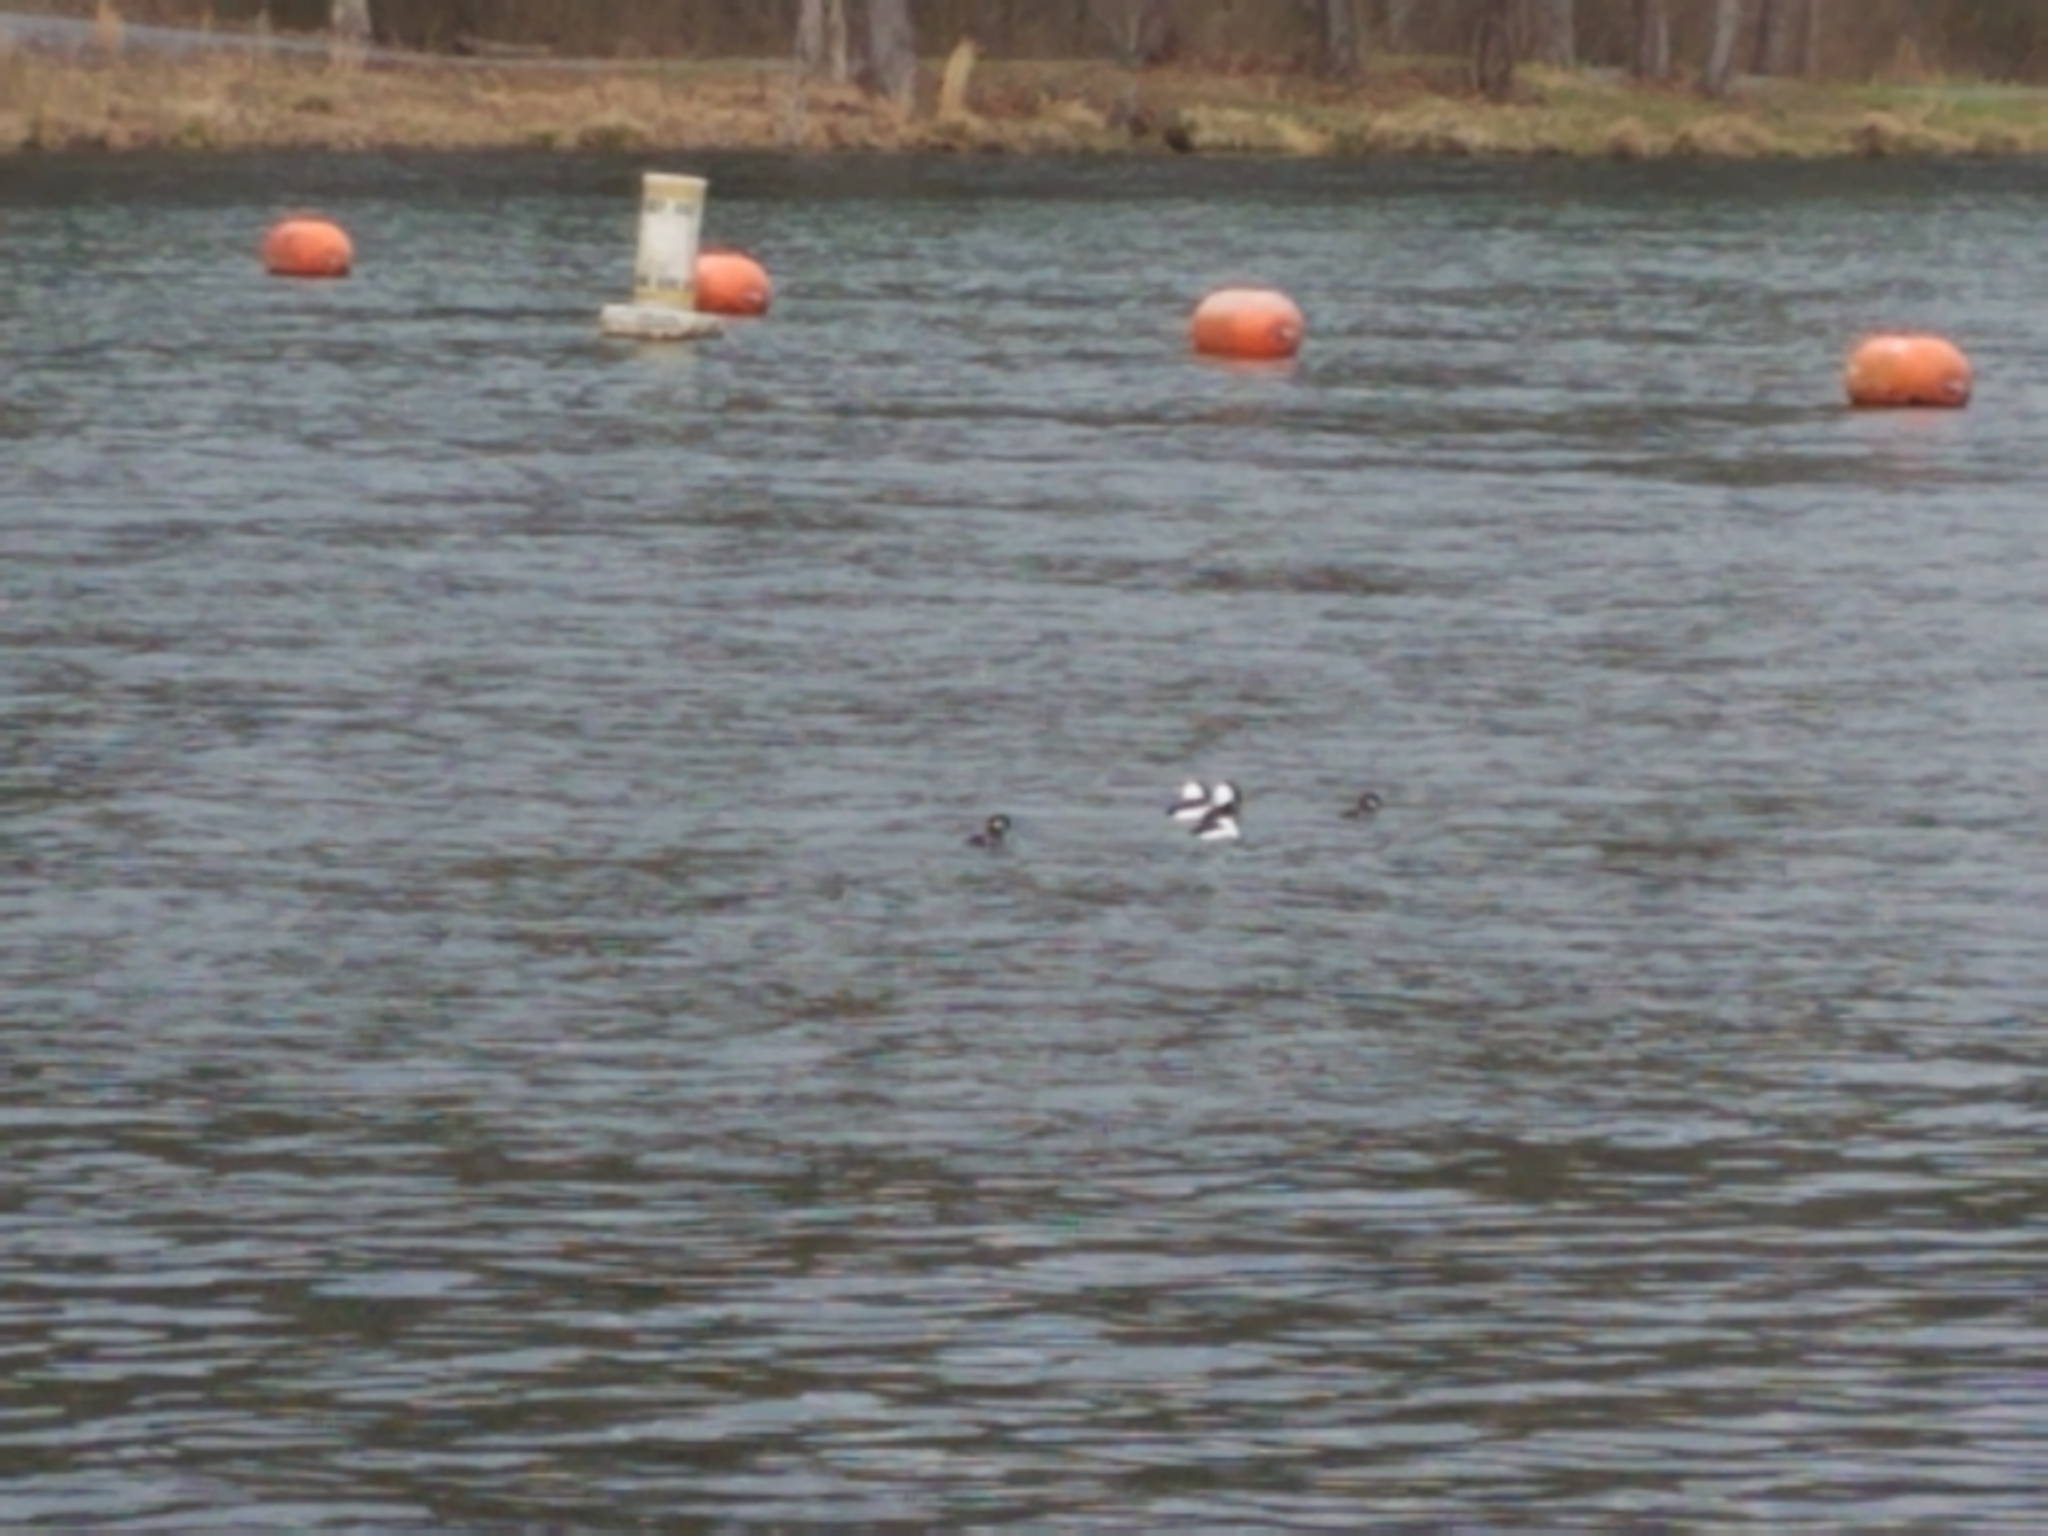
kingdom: Animalia
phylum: Chordata
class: Aves
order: Anseriformes
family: Anatidae
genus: Bucephala
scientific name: Bucephala albeola
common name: Bufflehead
